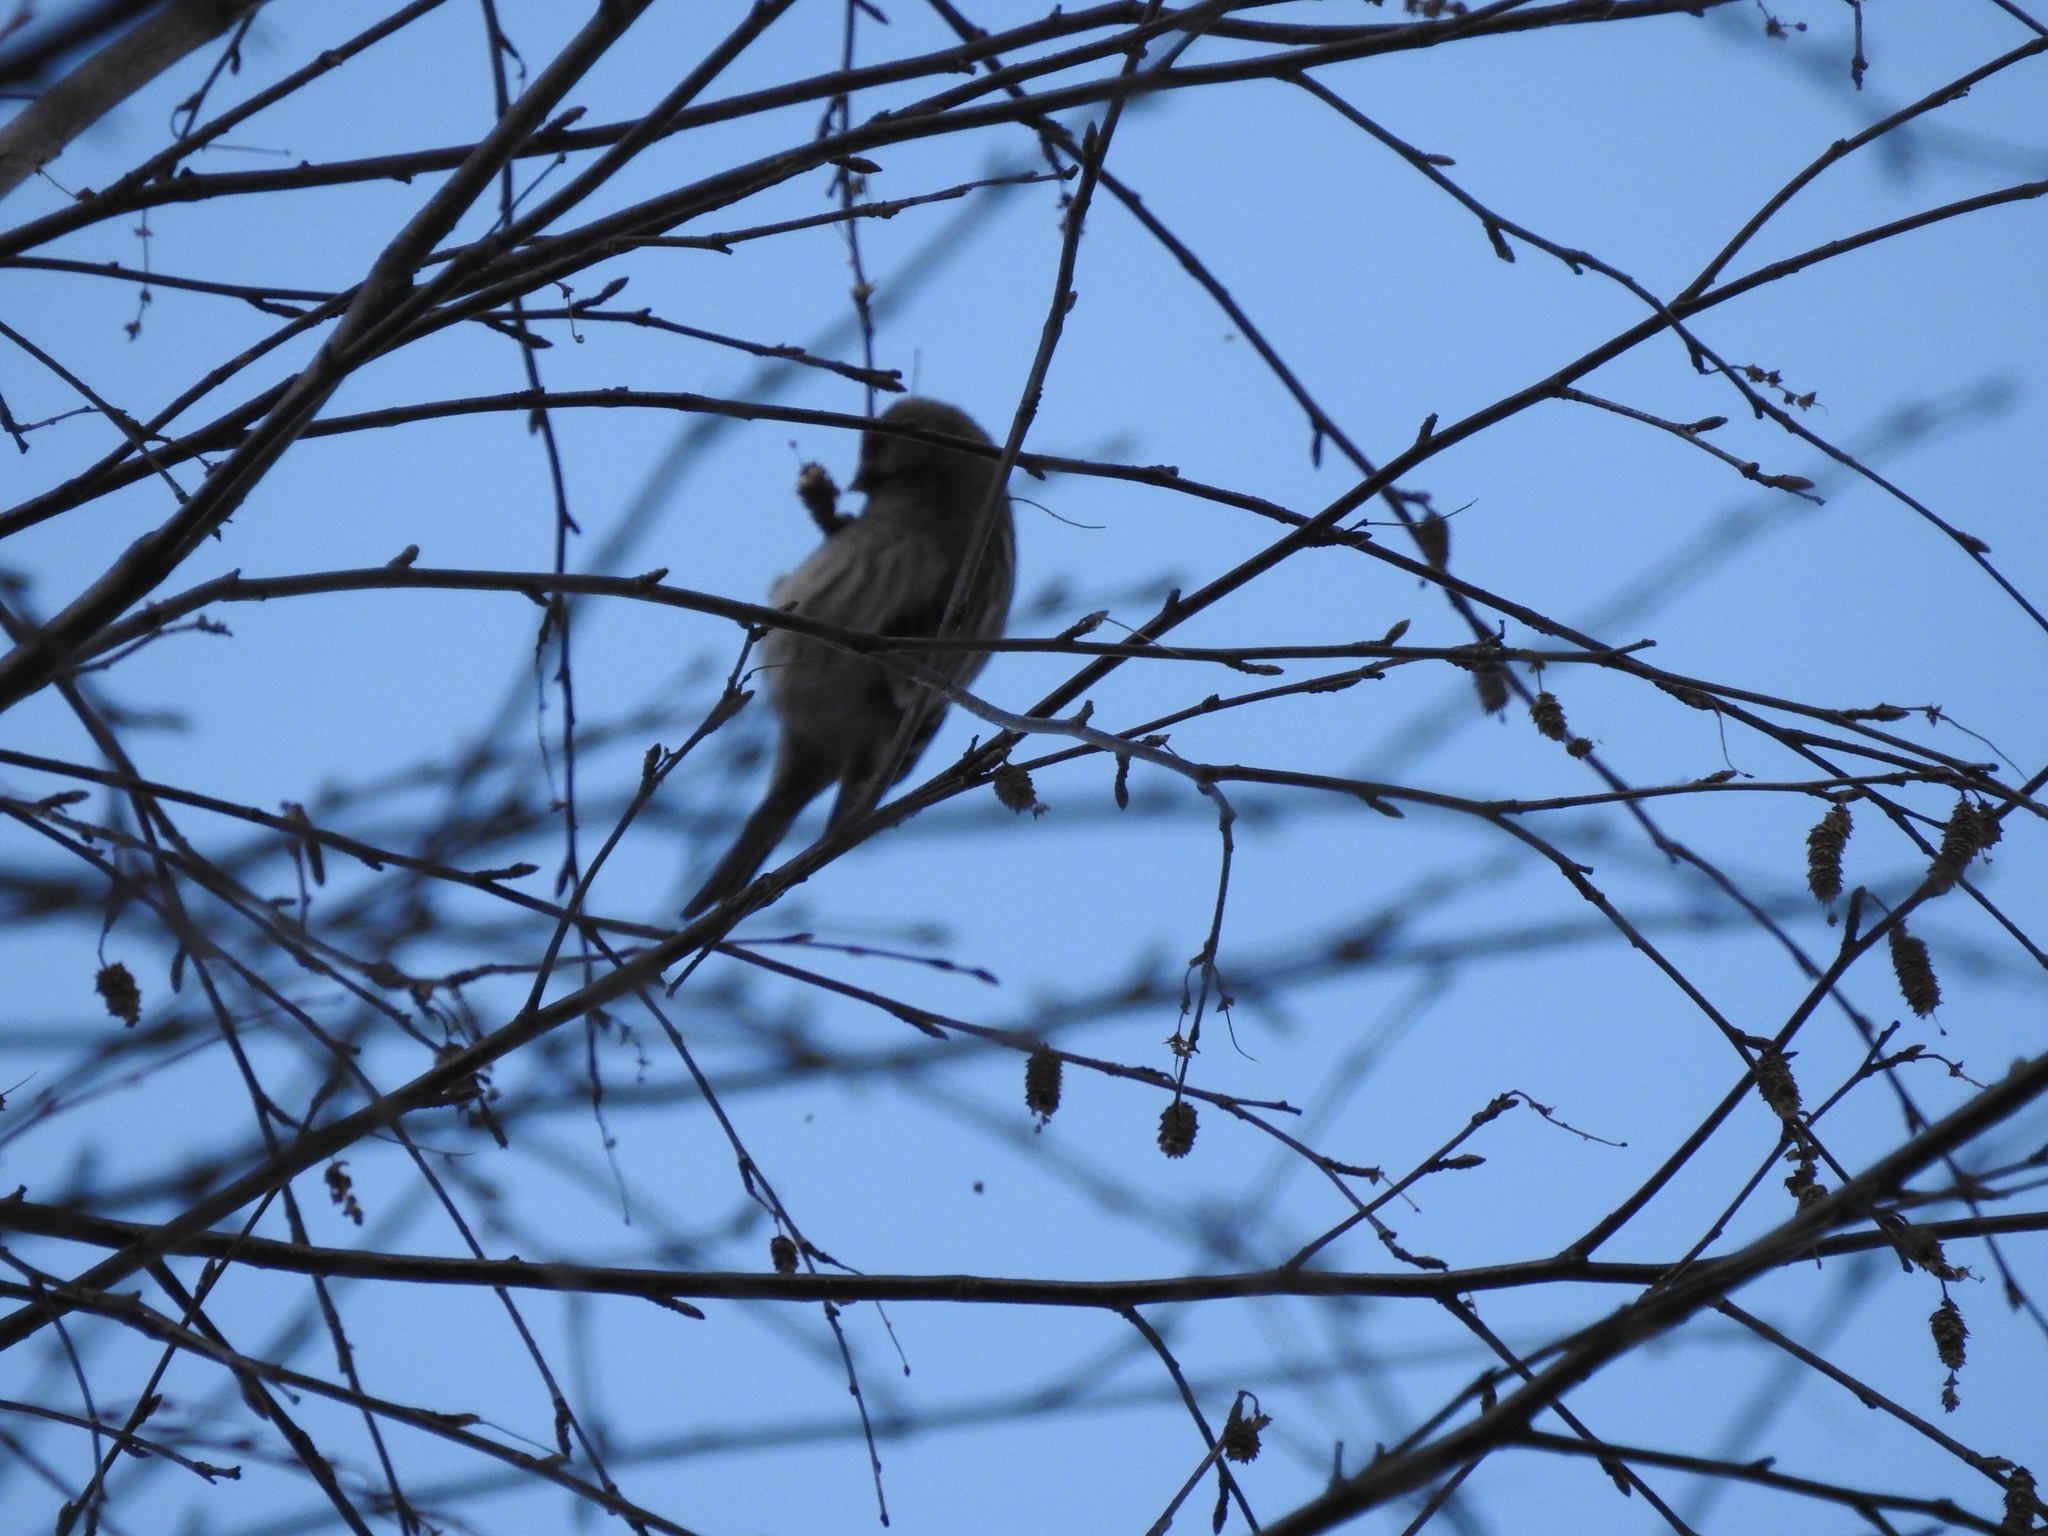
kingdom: Animalia
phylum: Chordata
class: Aves
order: Passeriformes
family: Fringillidae
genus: Acanthis
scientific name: Acanthis flammea
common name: Common redpoll
